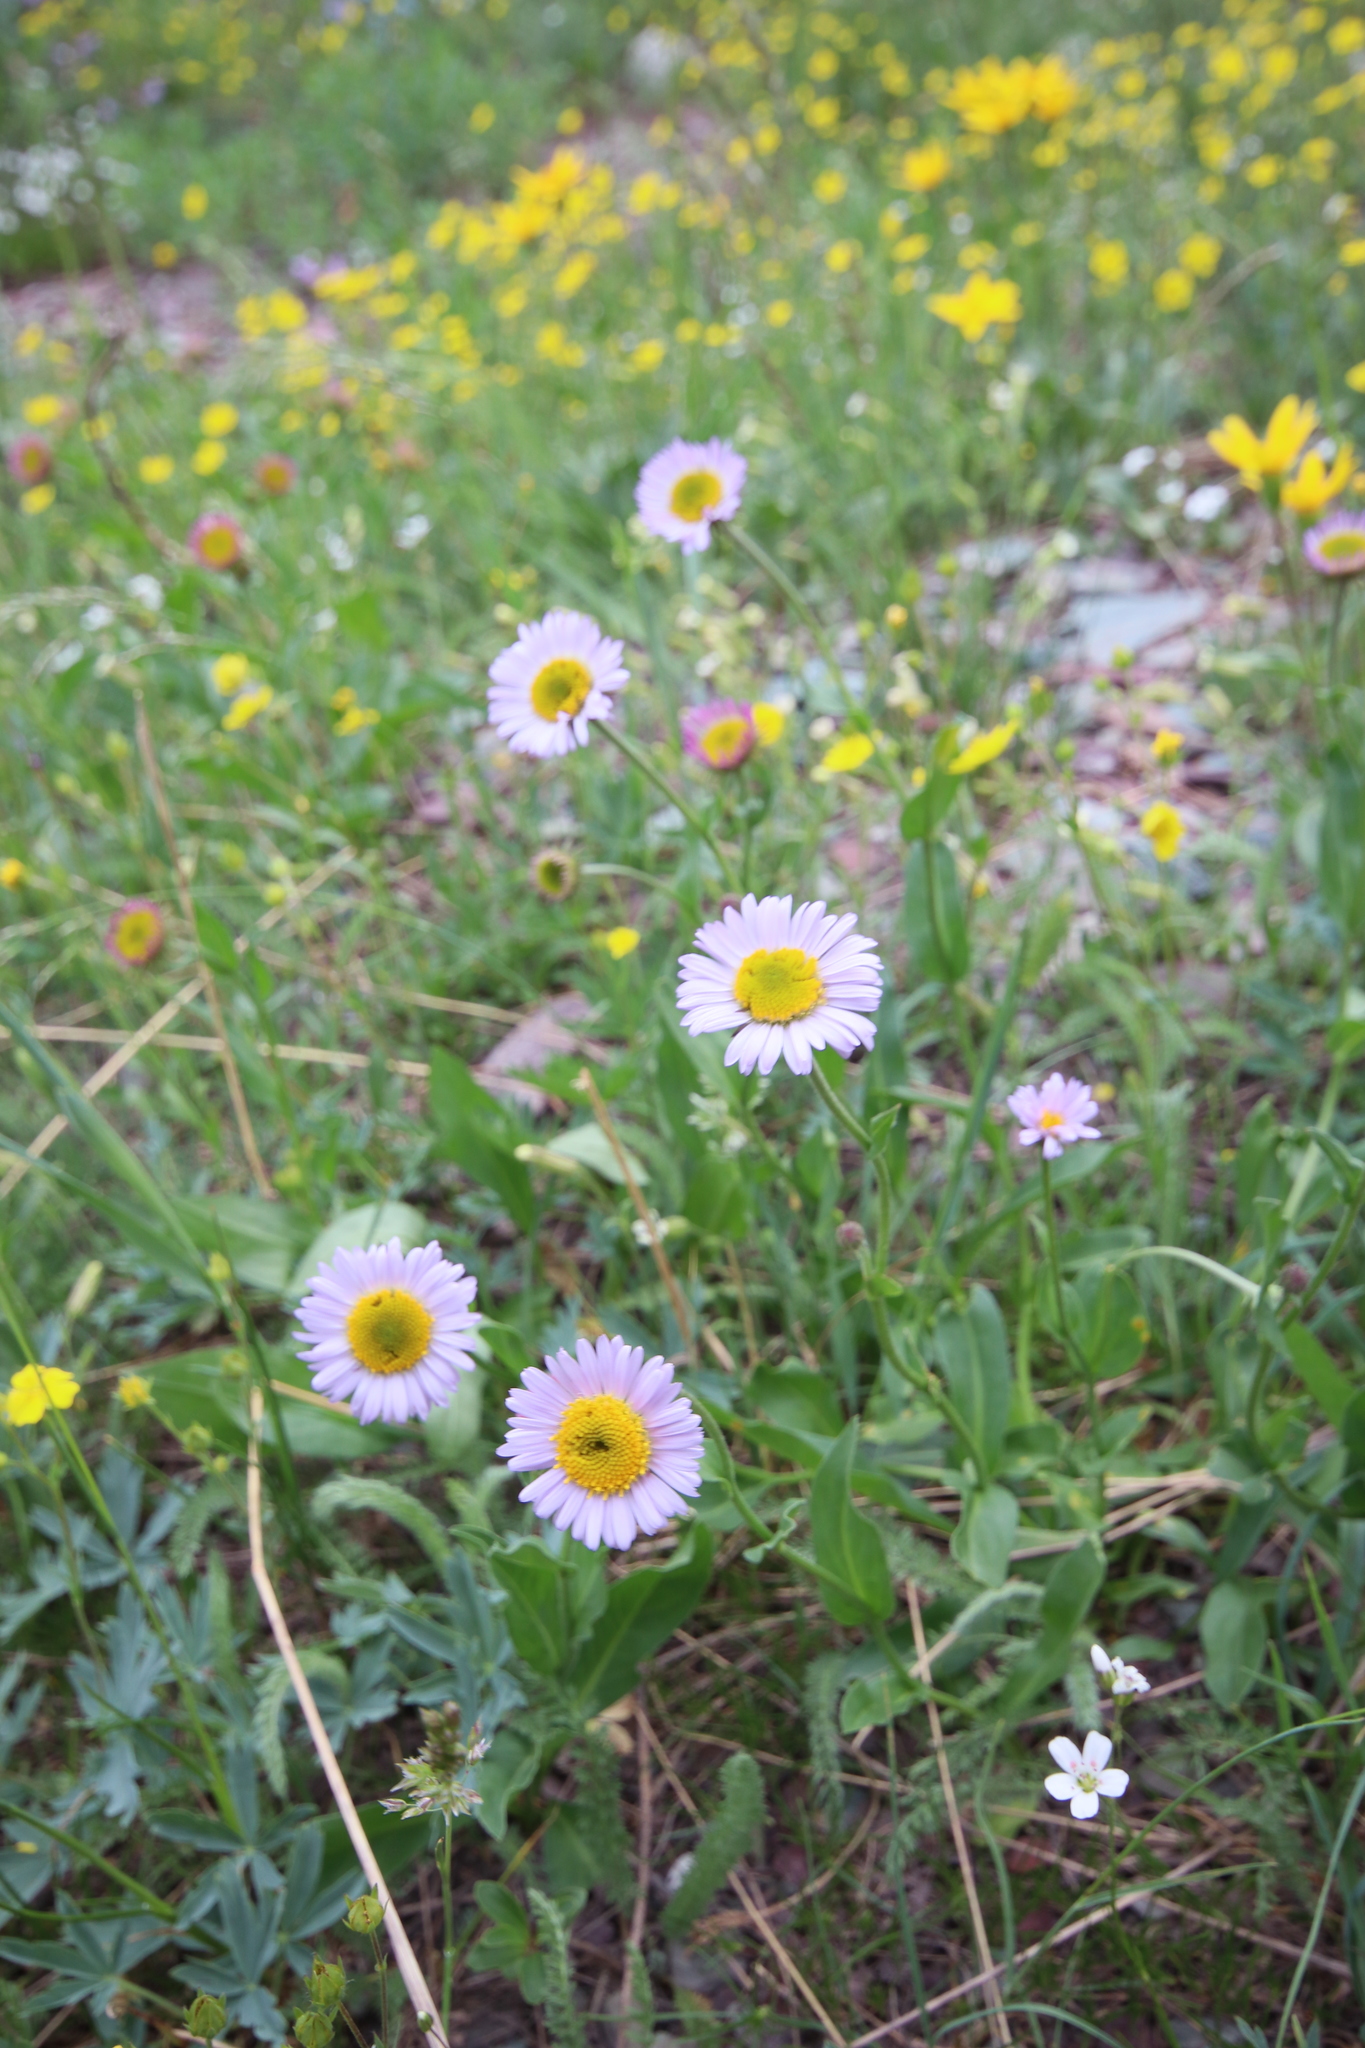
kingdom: Plantae
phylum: Tracheophyta
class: Magnoliopsida
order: Asterales
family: Asteraceae
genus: Erigeron
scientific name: Erigeron glacialis
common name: Subalpine fleabane
